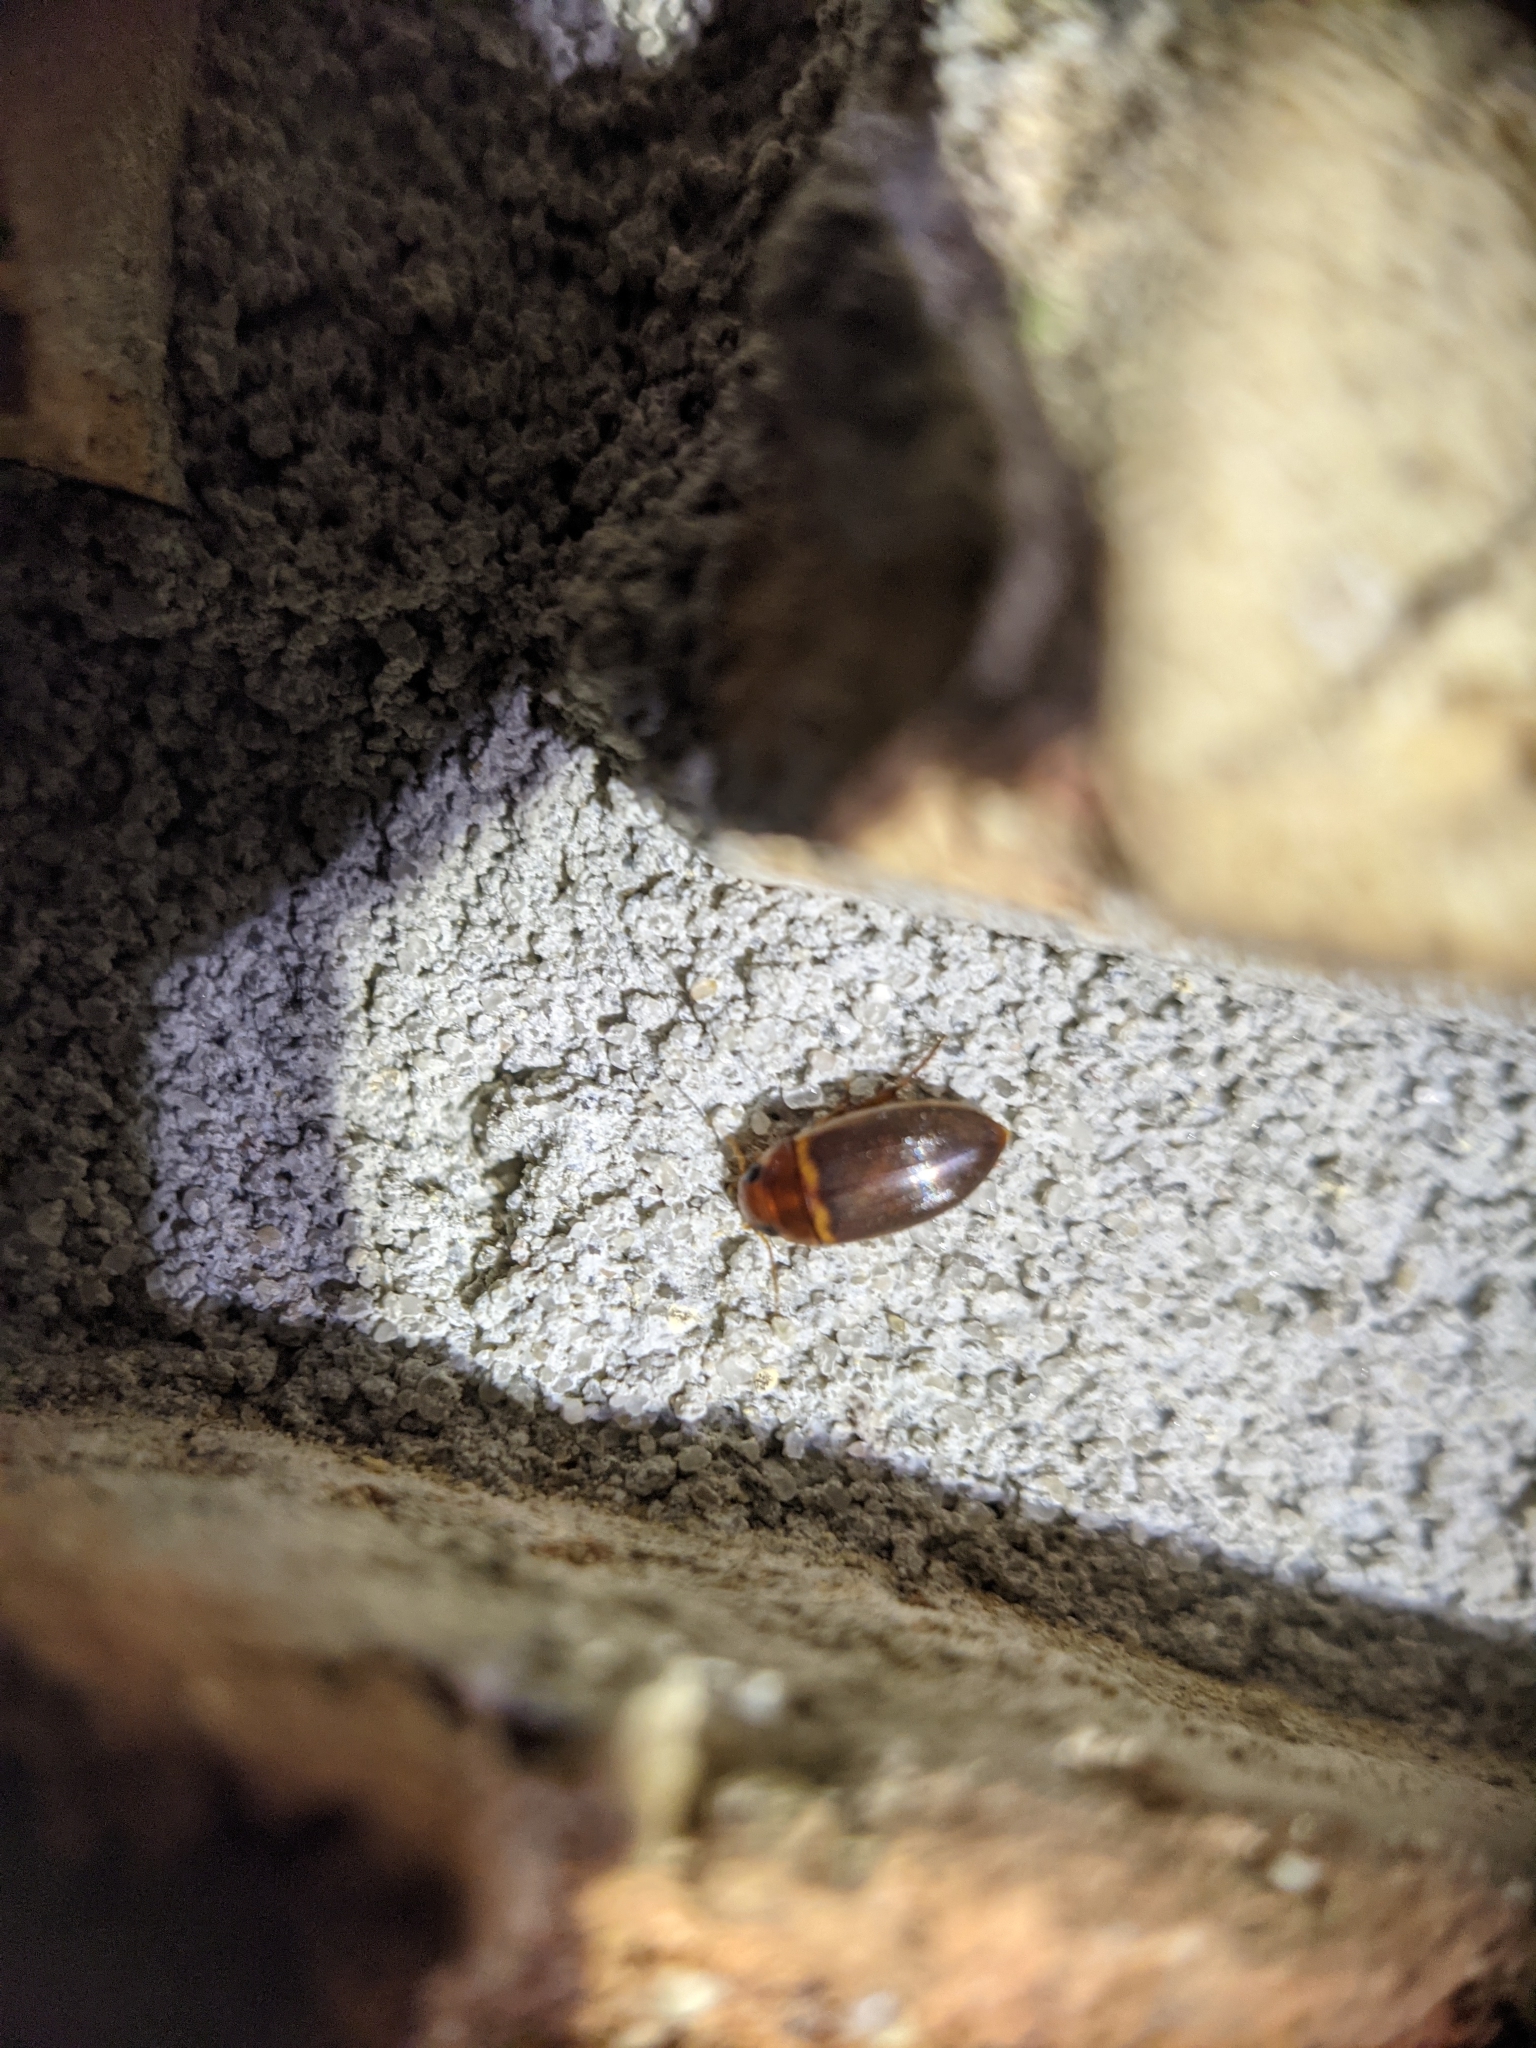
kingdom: Animalia
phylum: Arthropoda
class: Insecta
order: Coleoptera
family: Dytiscidae
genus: Copelatus
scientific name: Copelatus caelatipennis
